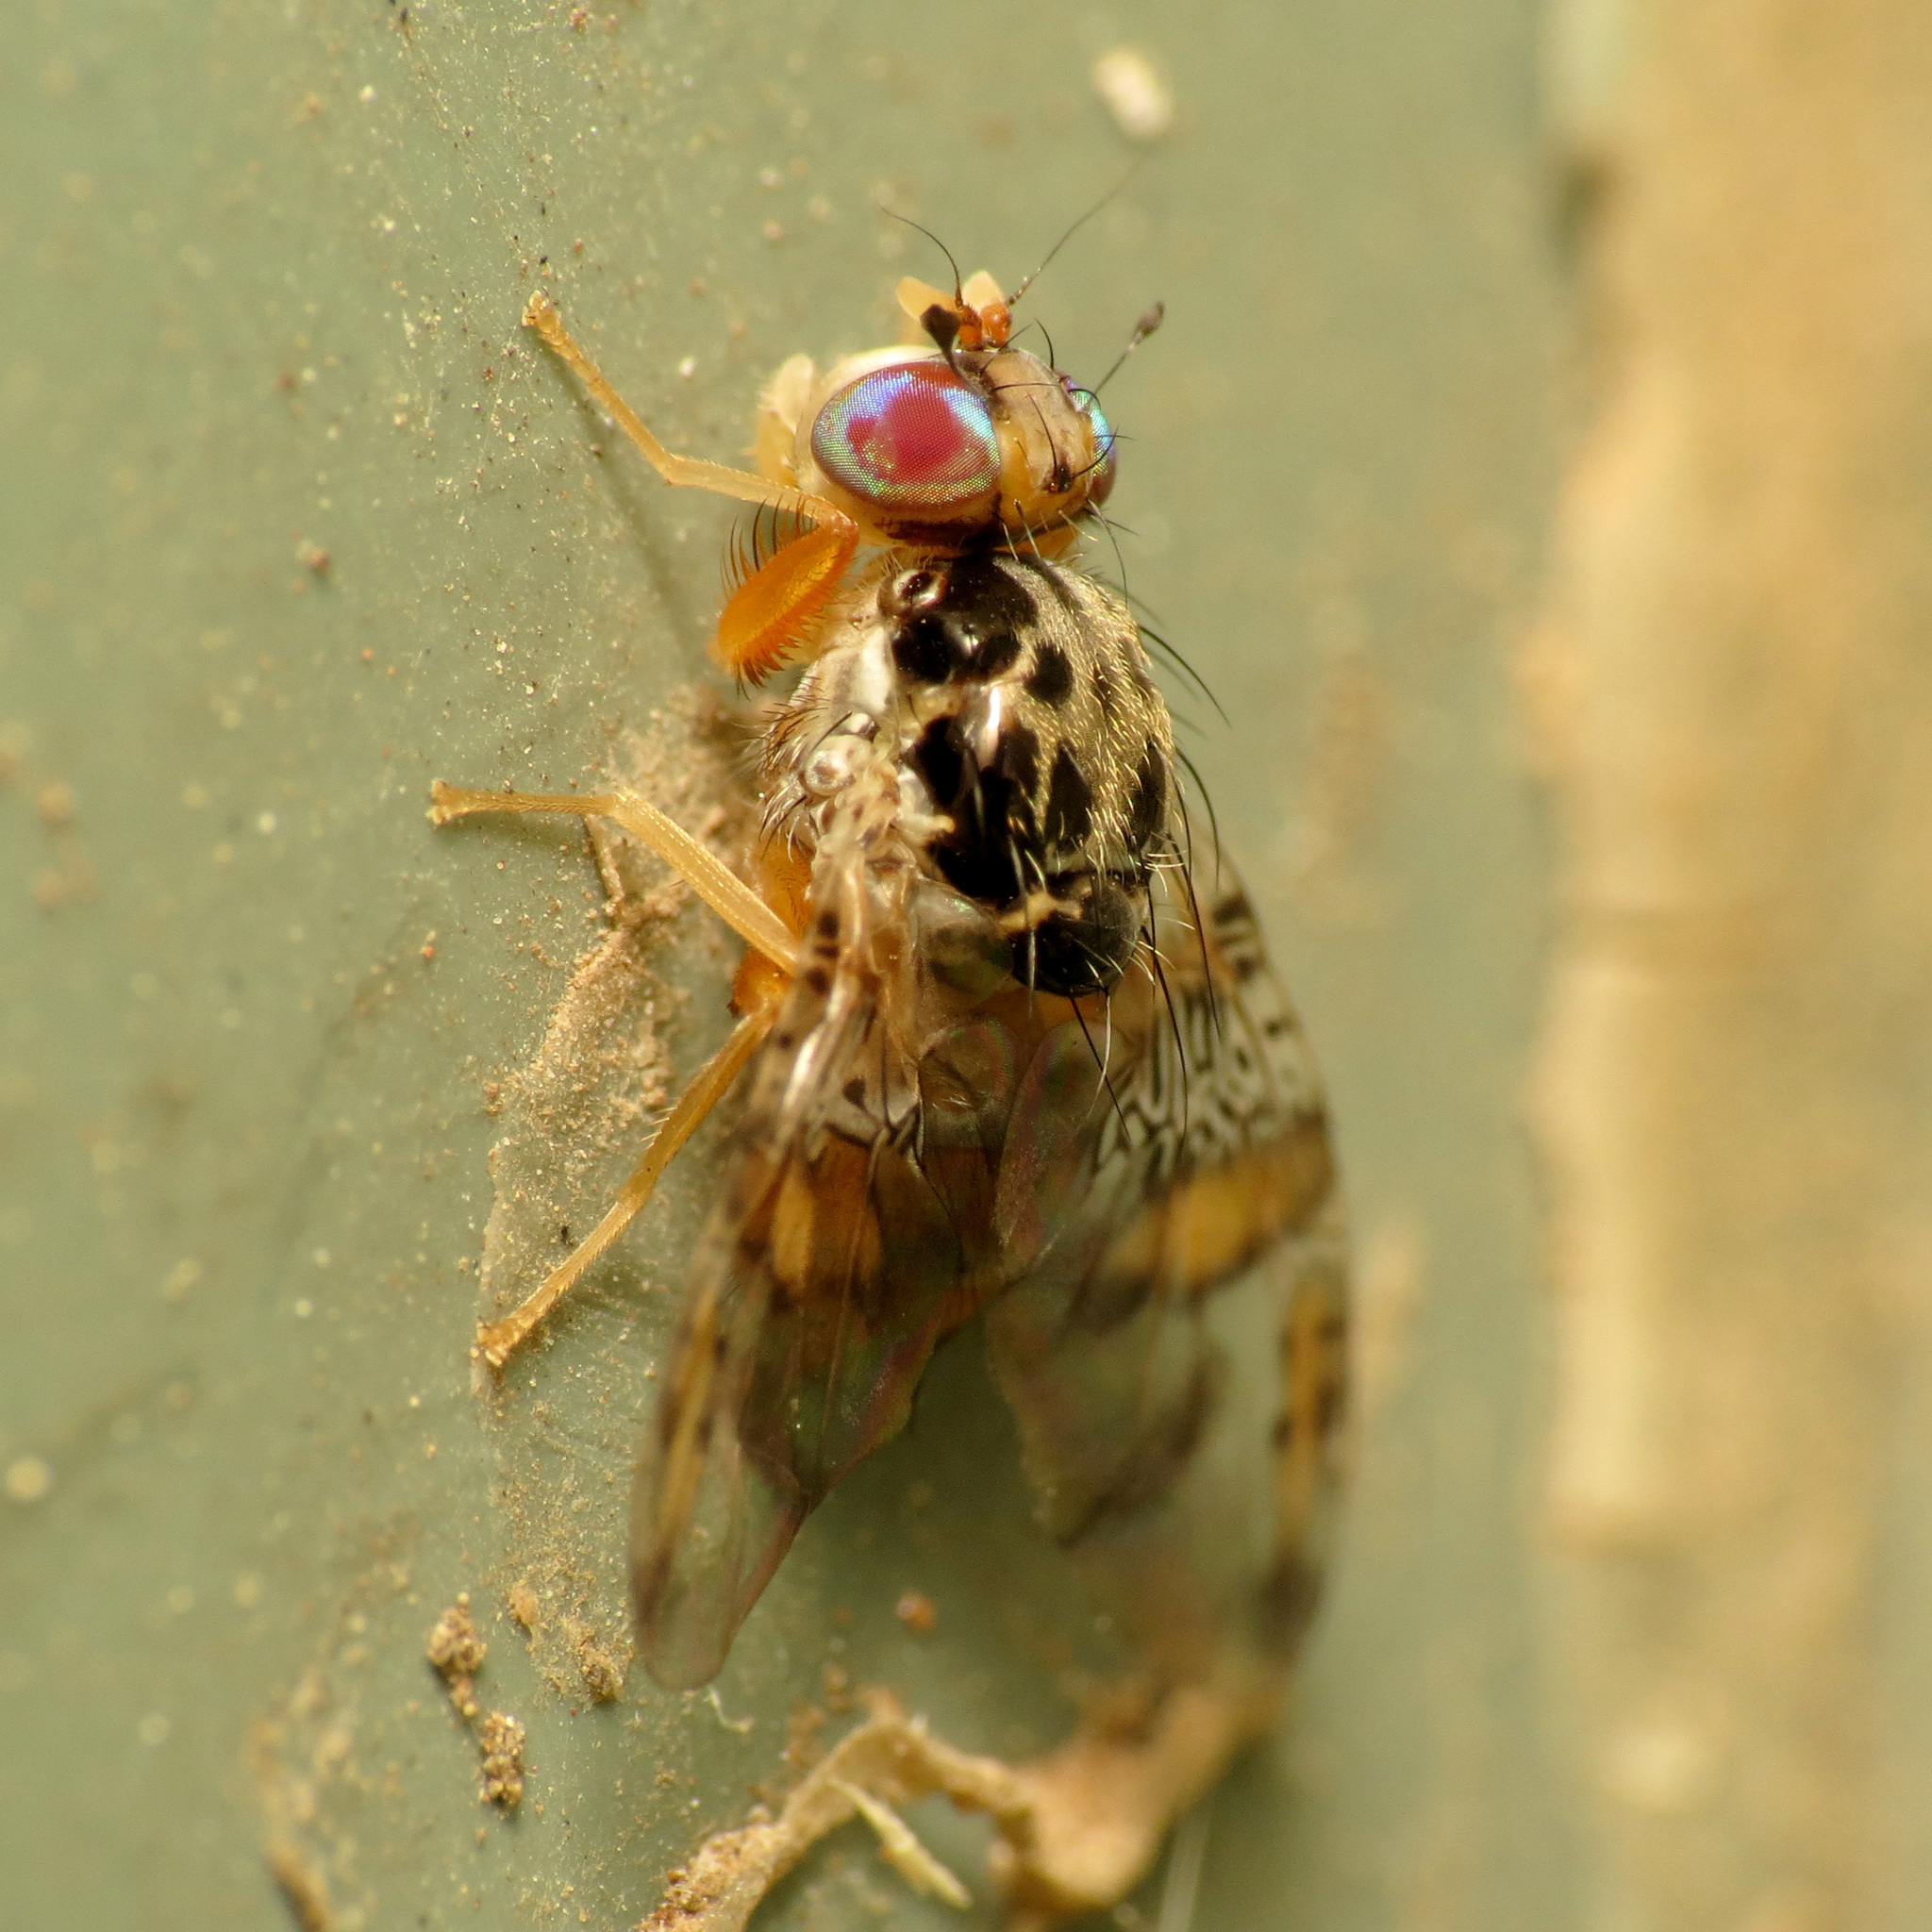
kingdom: Animalia
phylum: Arthropoda
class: Insecta
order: Diptera
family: Tephritidae
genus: Ceratitis
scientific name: Ceratitis capitata
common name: Mediterranean fruit fly
